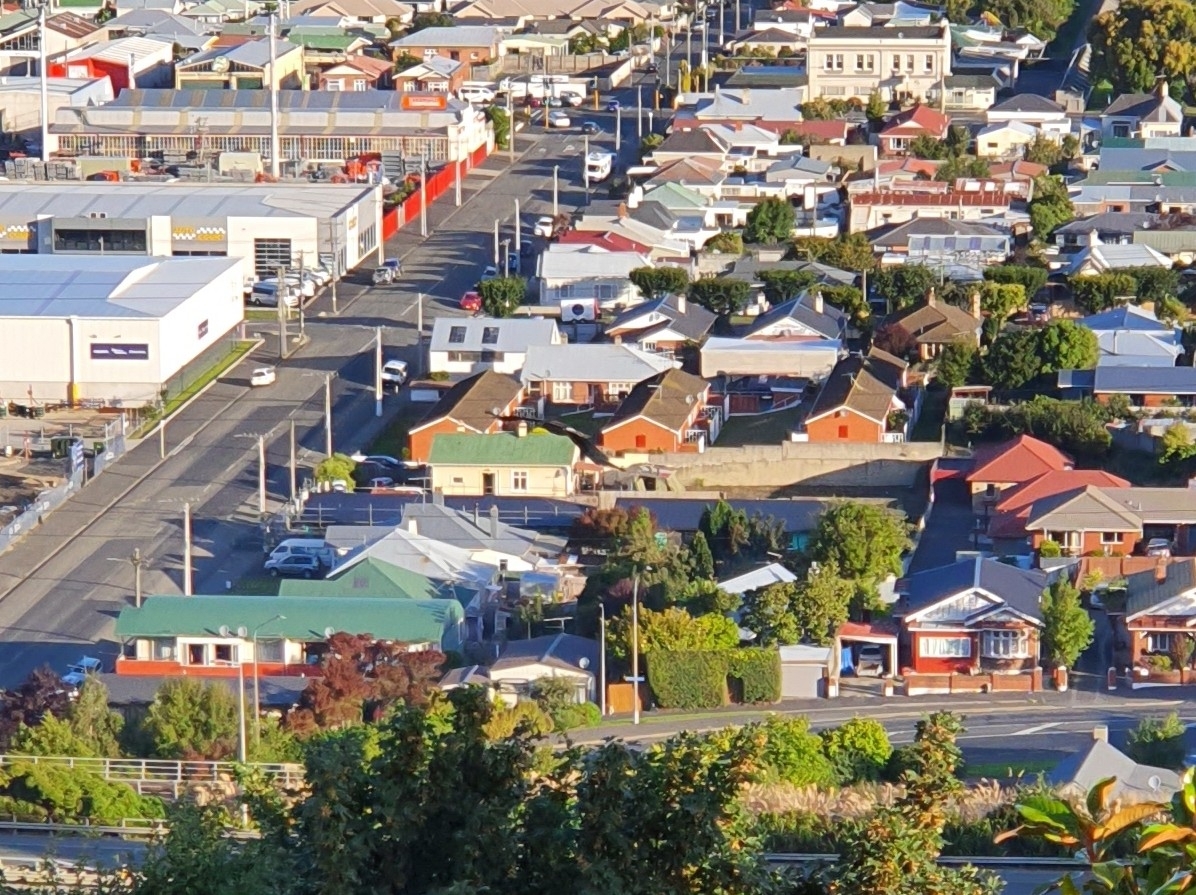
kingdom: Animalia
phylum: Chordata
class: Aves
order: Accipitriformes
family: Accipitridae
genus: Circus
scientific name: Circus approximans
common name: Swamp harrier
